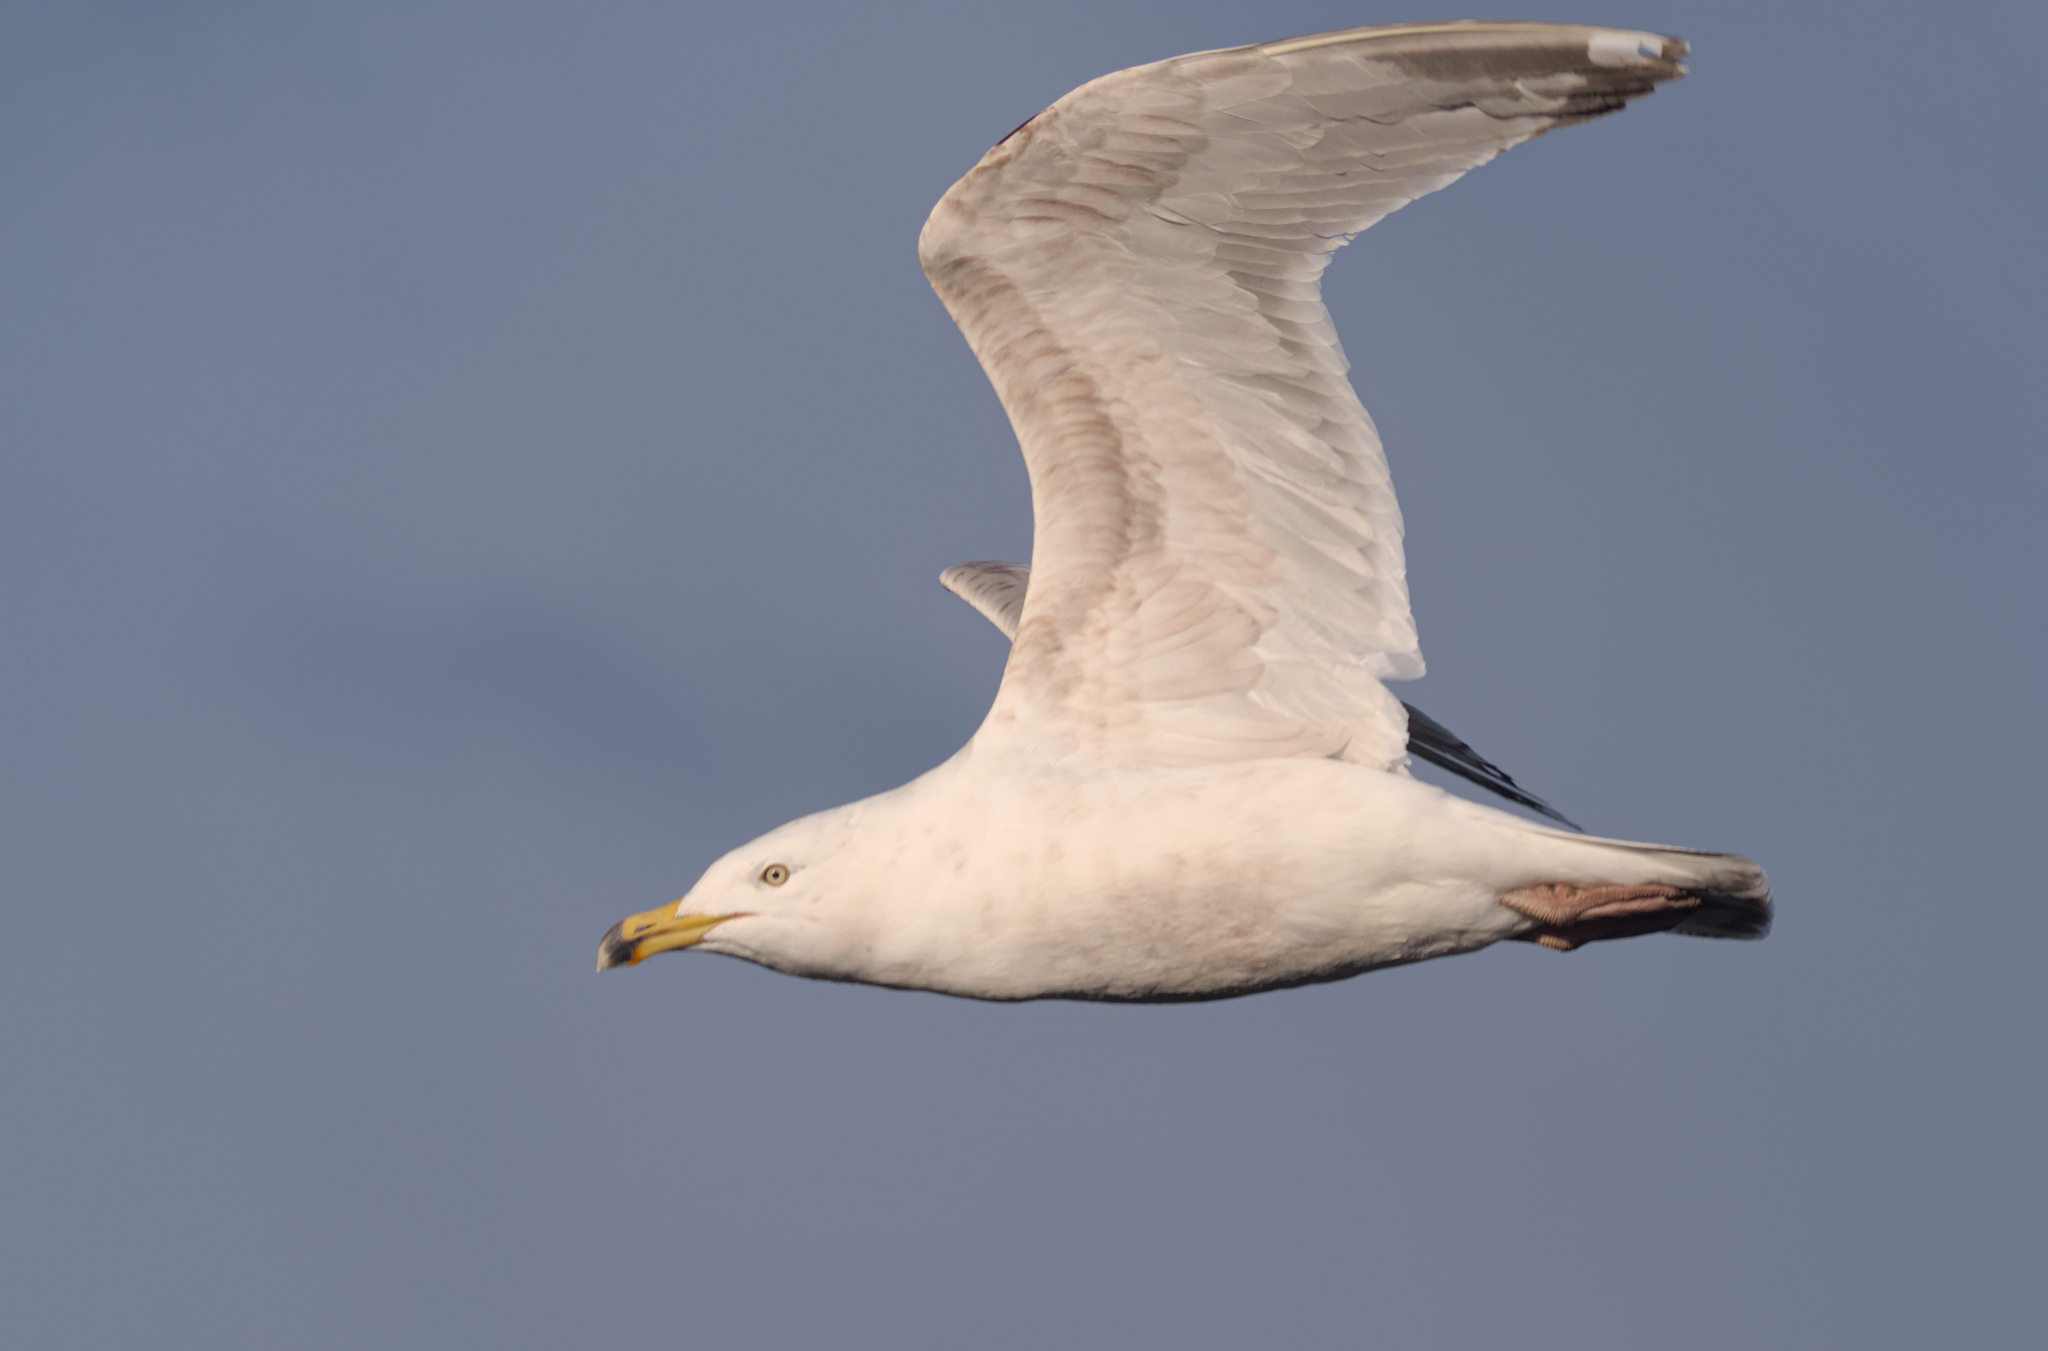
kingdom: Animalia
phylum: Chordata
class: Aves
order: Charadriiformes
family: Laridae
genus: Larus
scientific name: Larus delawarensis
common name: Ring-billed gull
